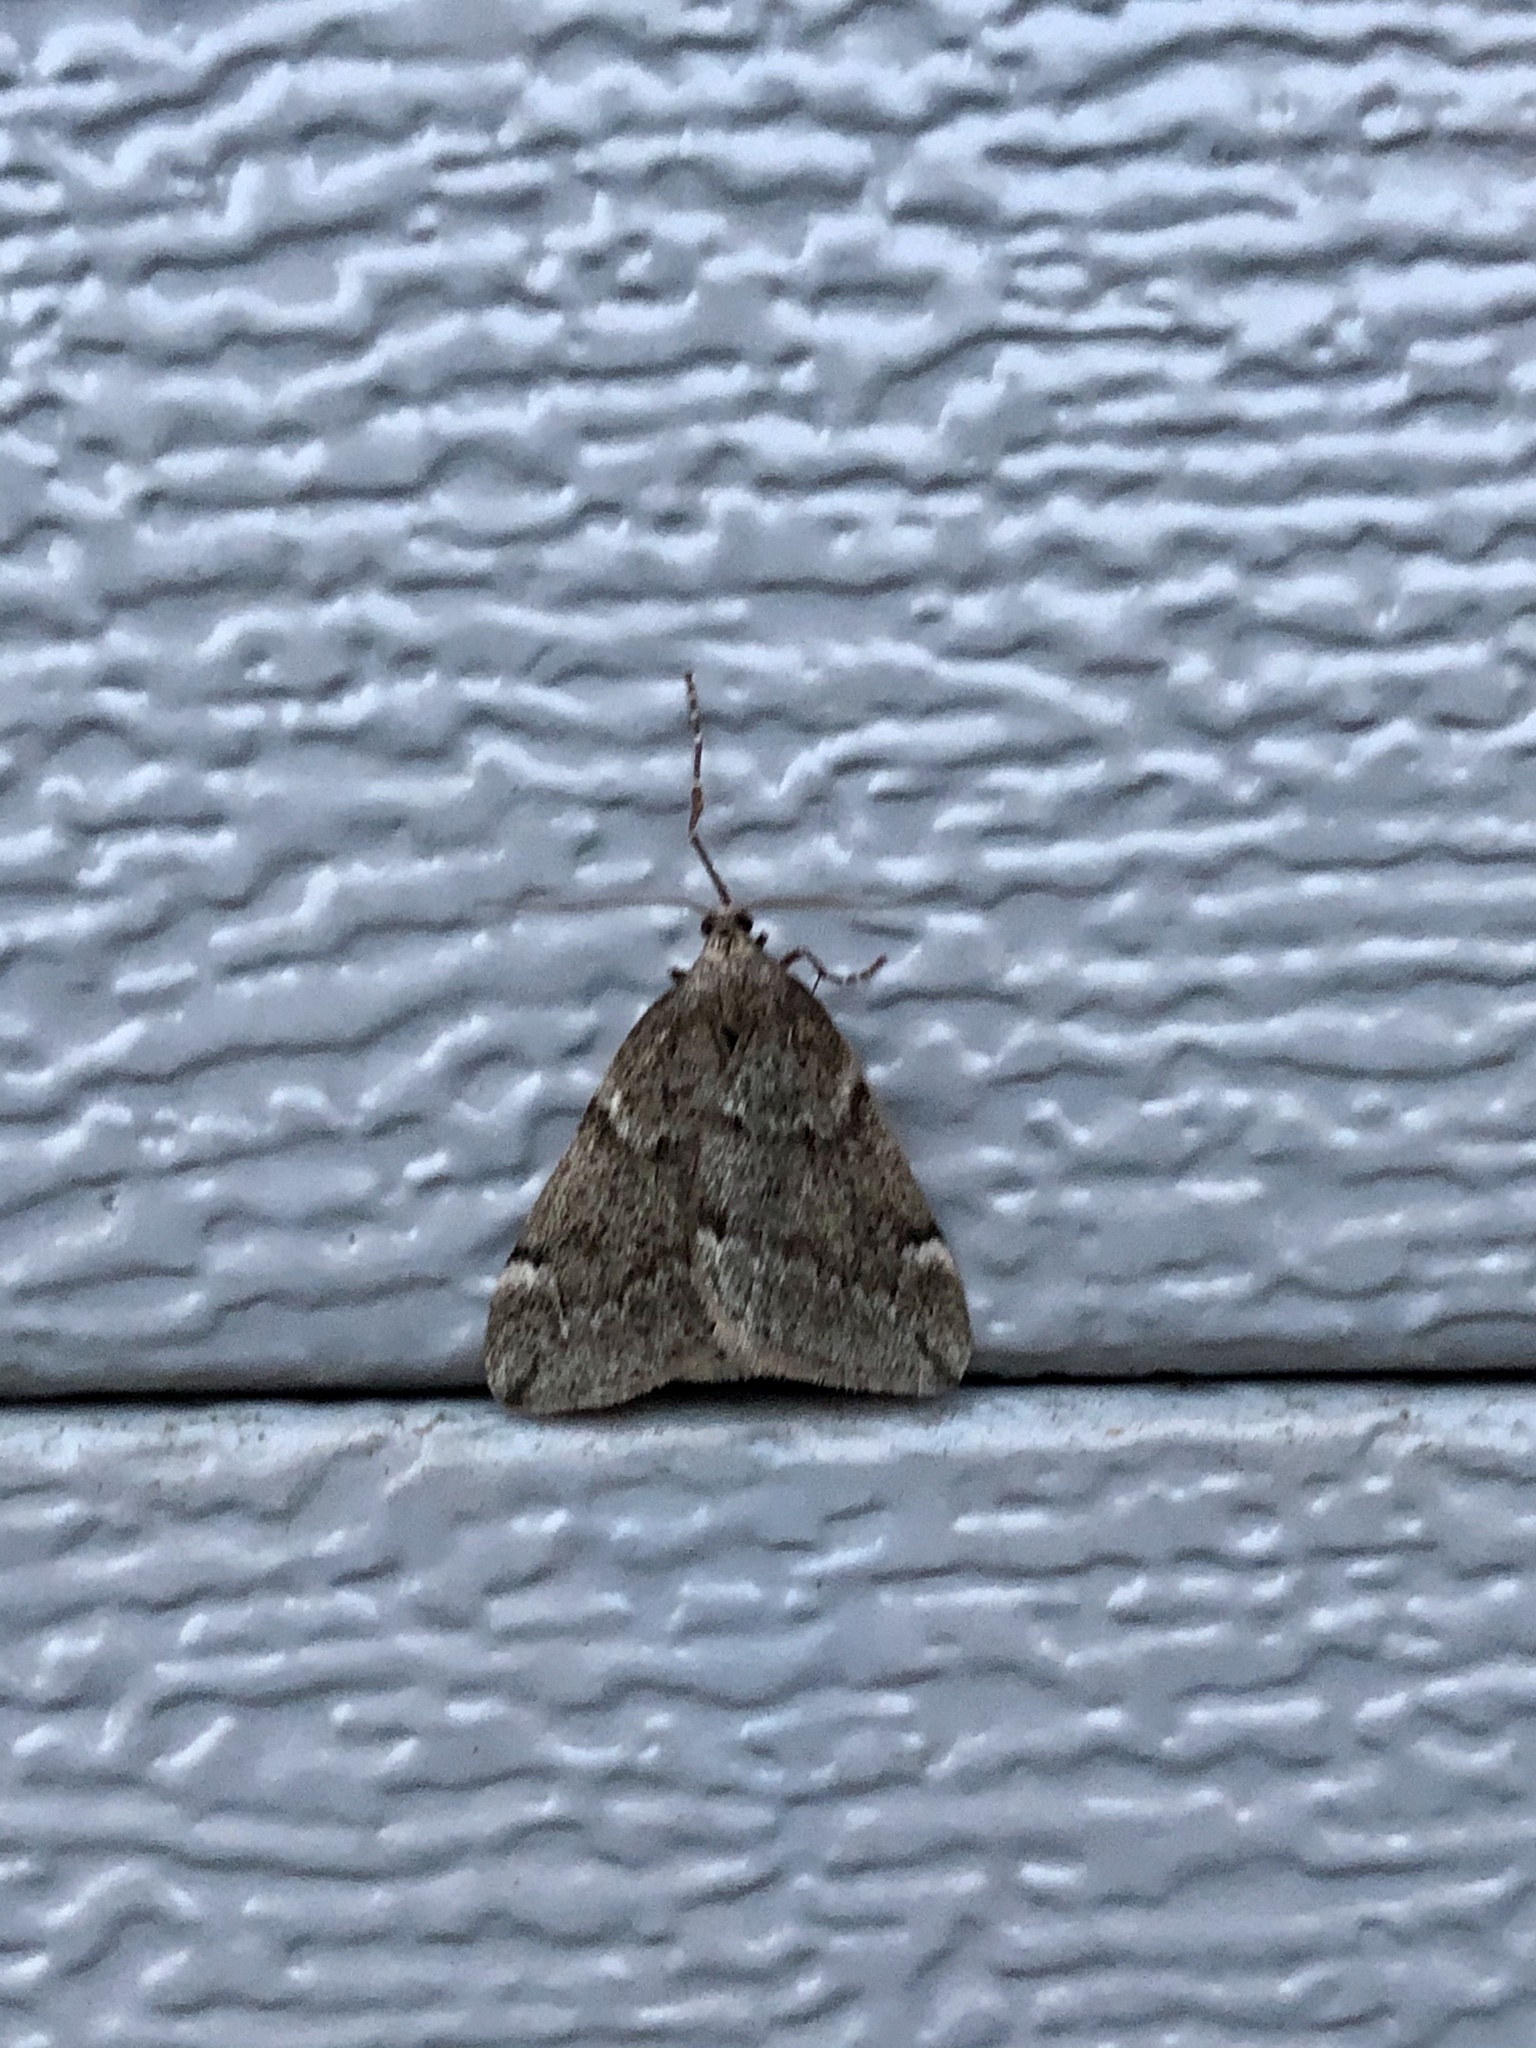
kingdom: Animalia
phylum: Arthropoda
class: Insecta
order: Lepidoptera
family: Geometridae
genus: Alsophila
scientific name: Alsophila pometaria
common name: Fall cankerworm
